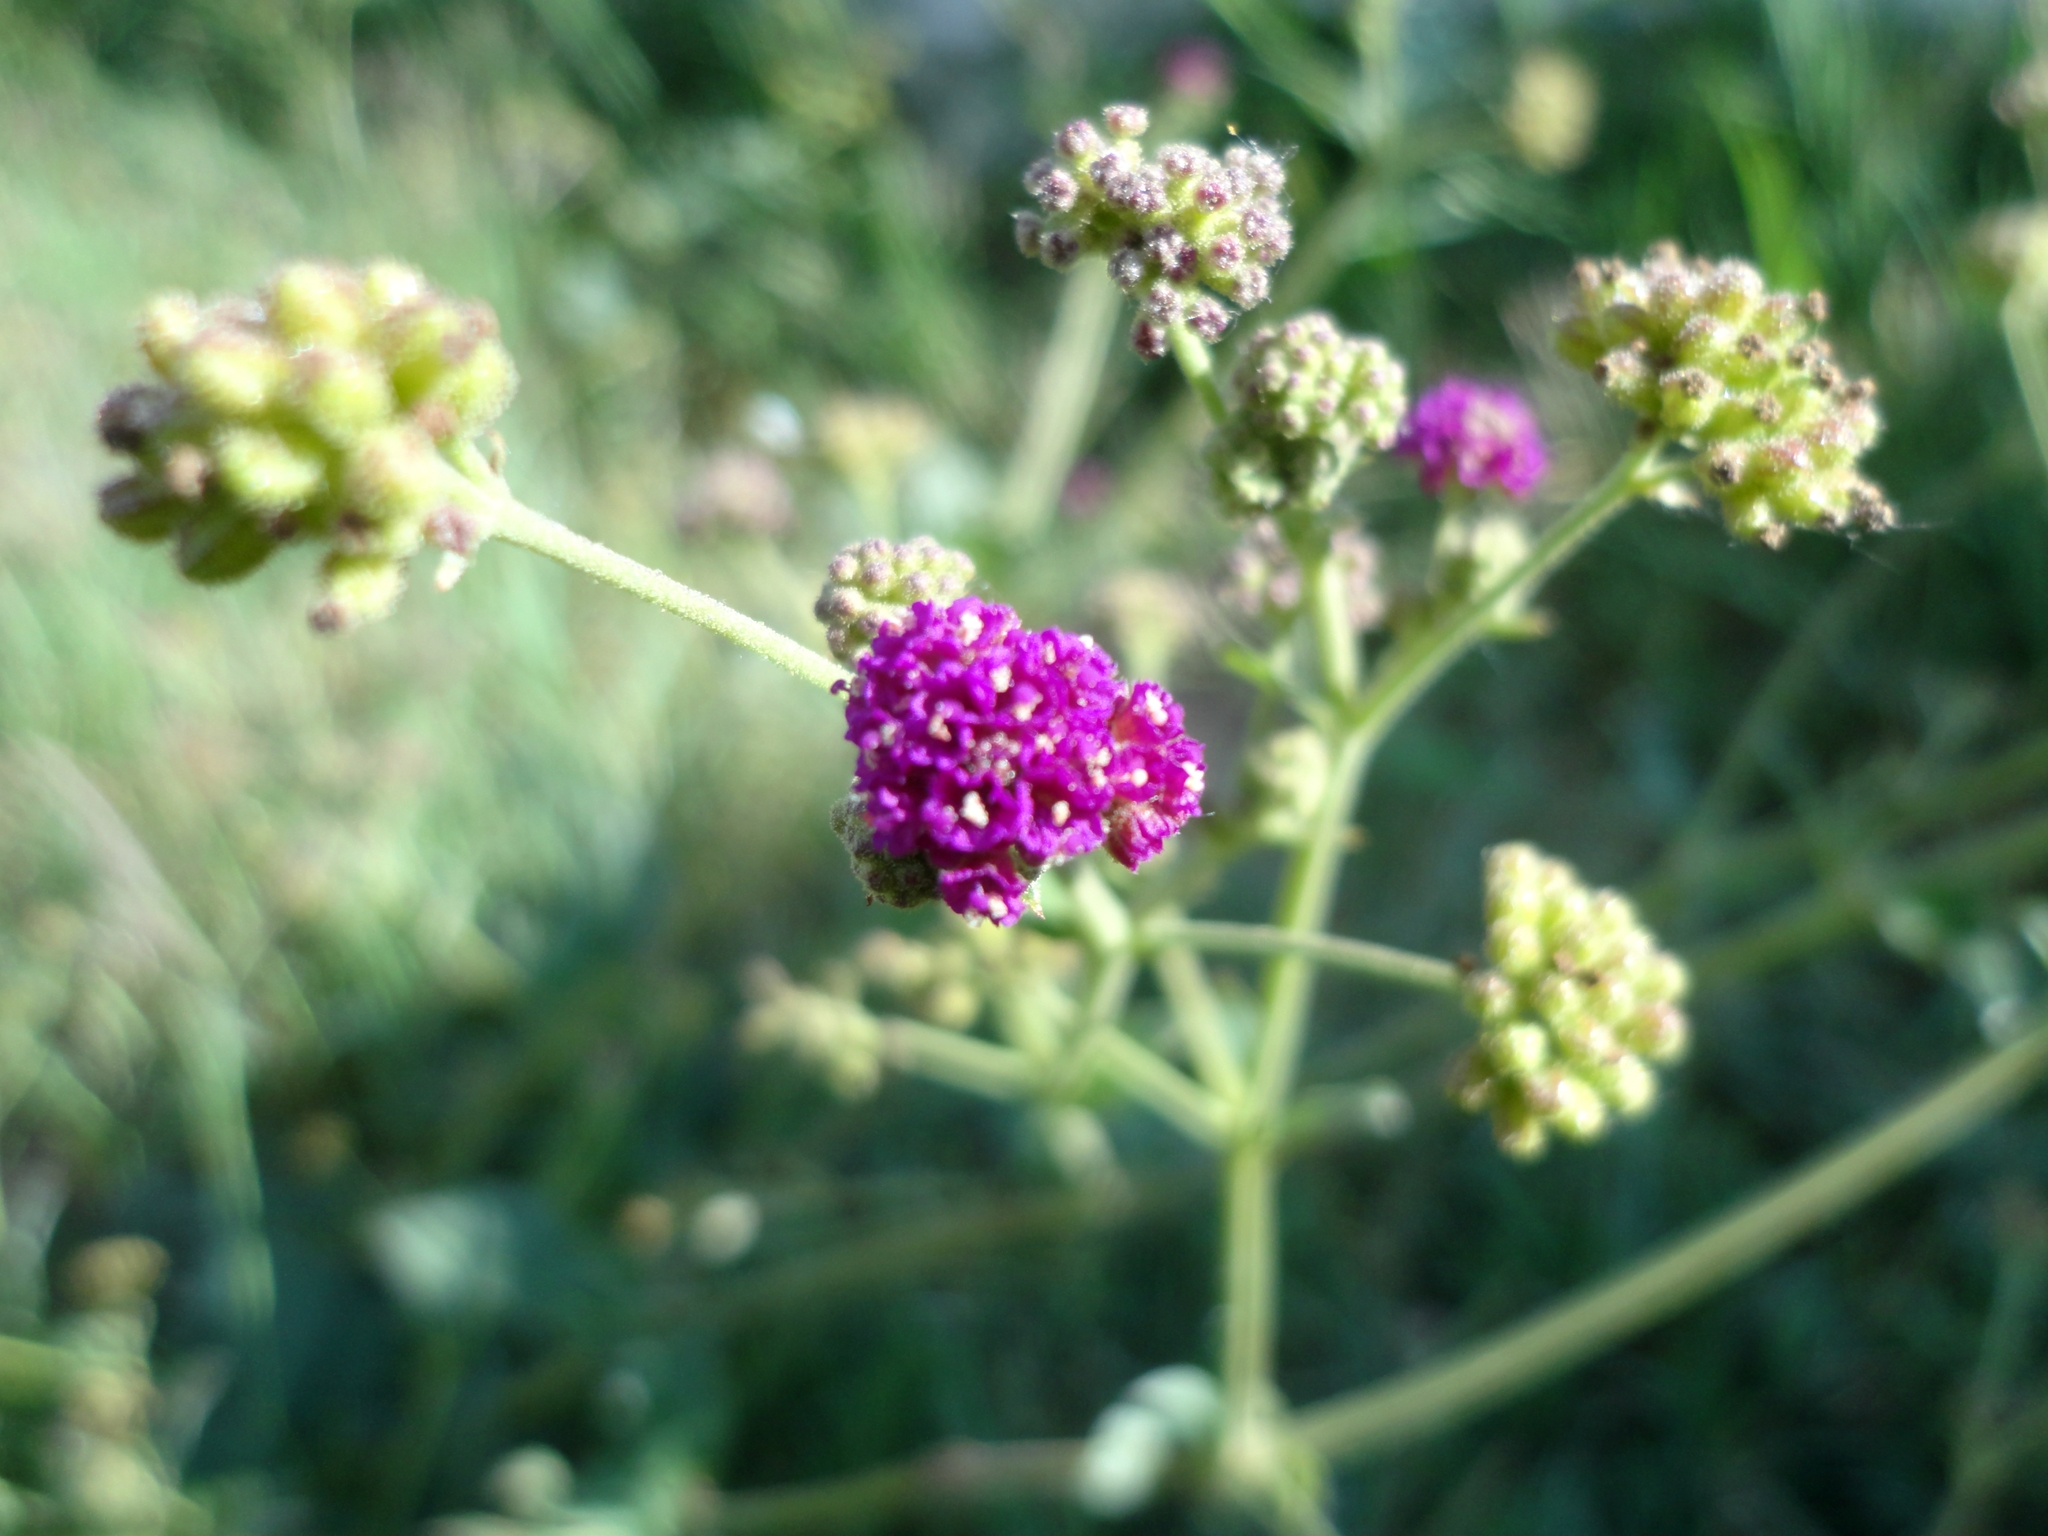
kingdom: Plantae
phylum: Tracheophyta
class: Magnoliopsida
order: Caryophyllales
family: Nyctaginaceae
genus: Boerhavia
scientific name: Boerhavia coccinea
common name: Scarlet spiderling
